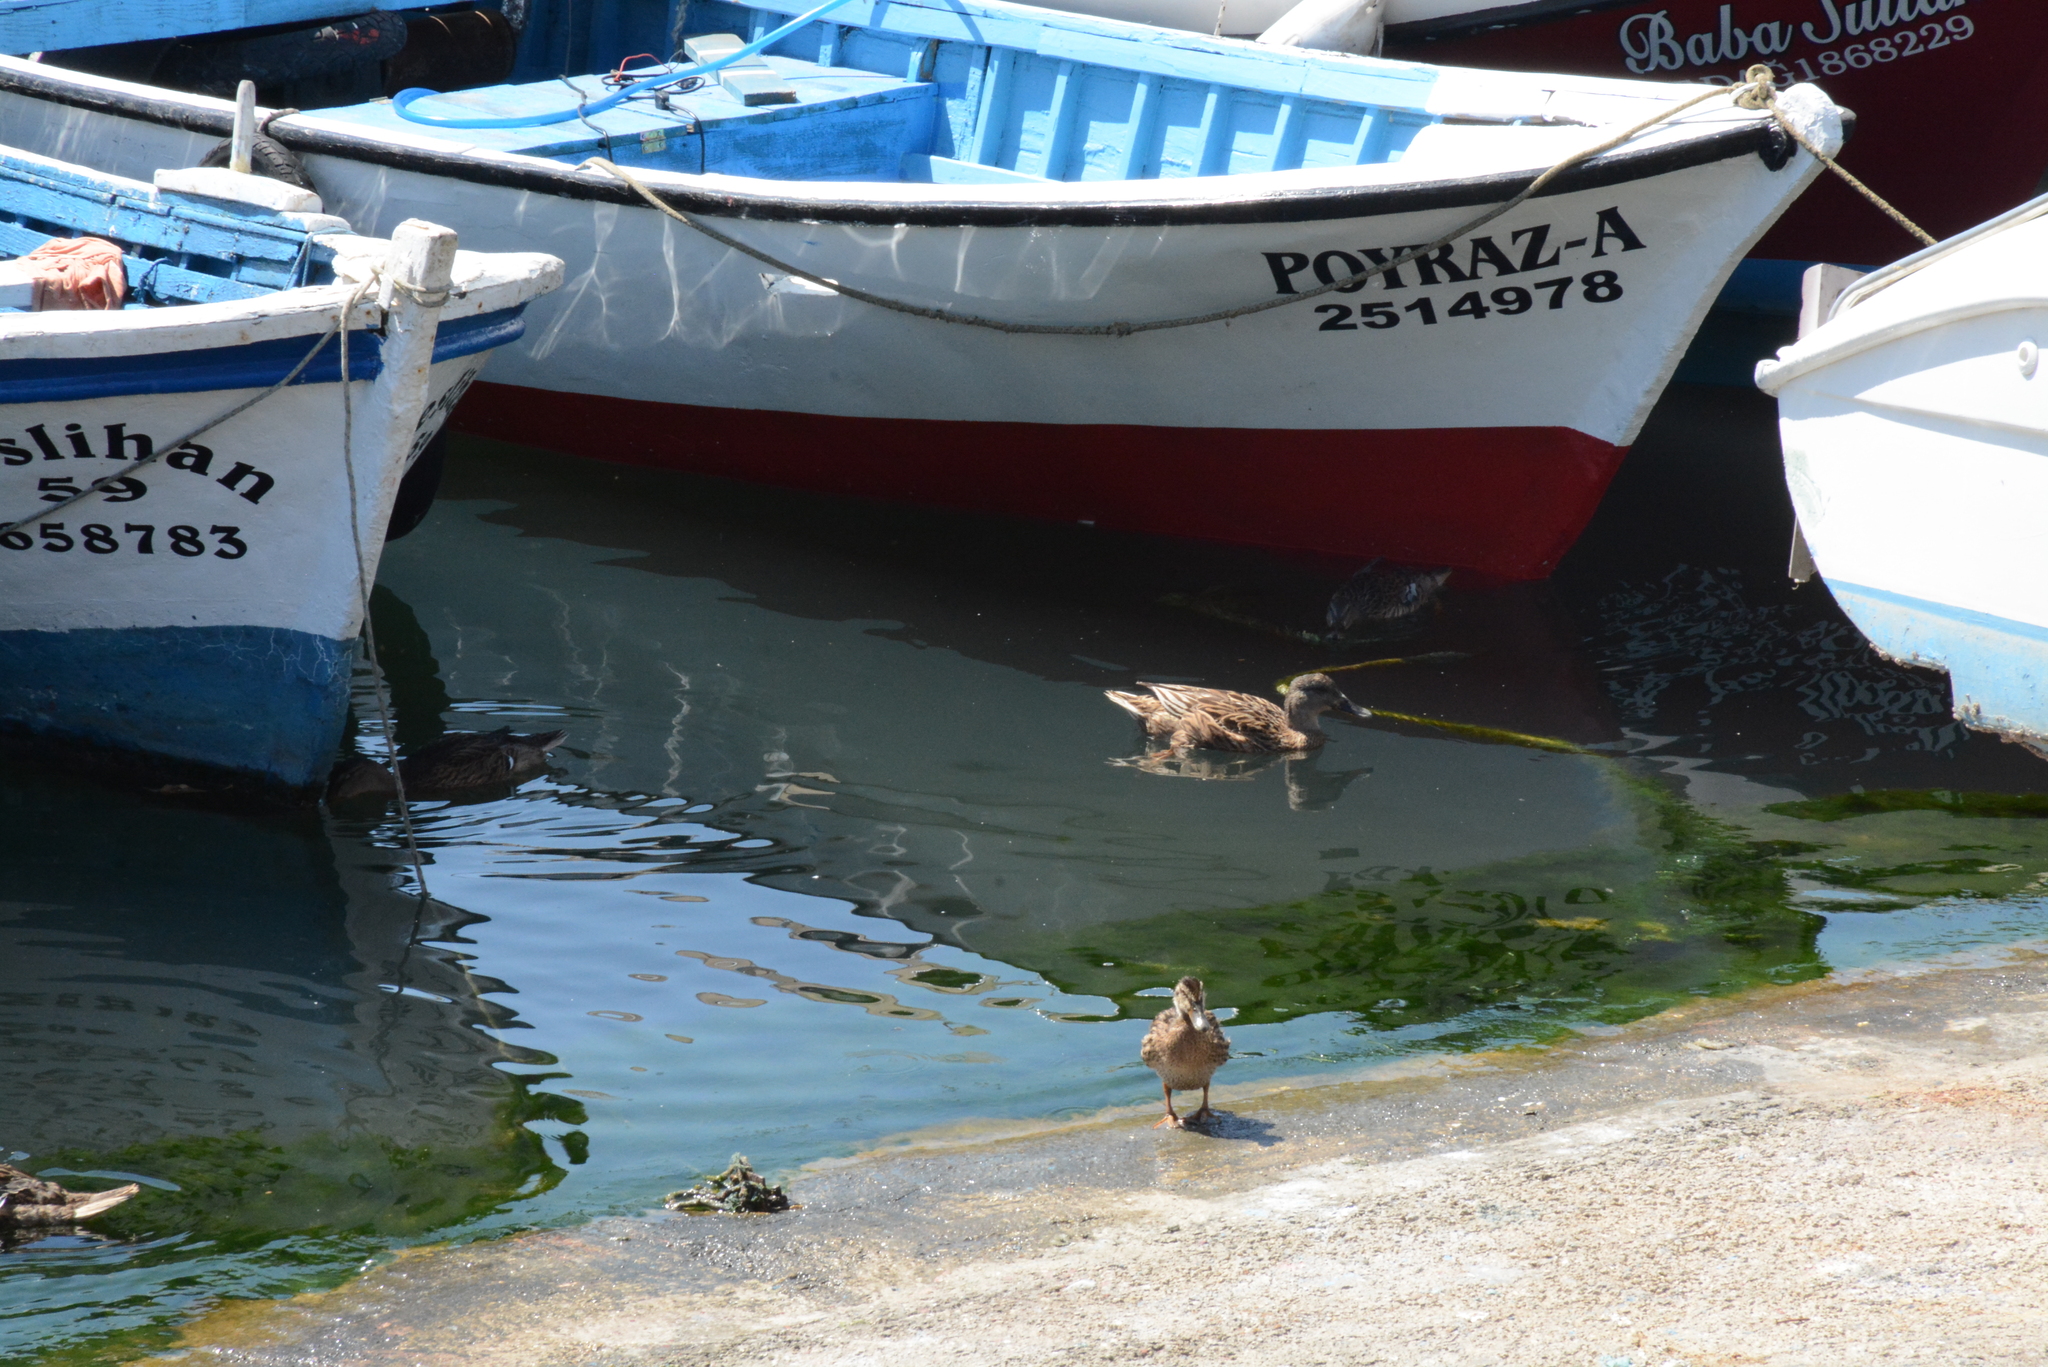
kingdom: Animalia
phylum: Chordata
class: Aves
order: Anseriformes
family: Anatidae
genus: Anas
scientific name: Anas platyrhynchos
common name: Mallard
